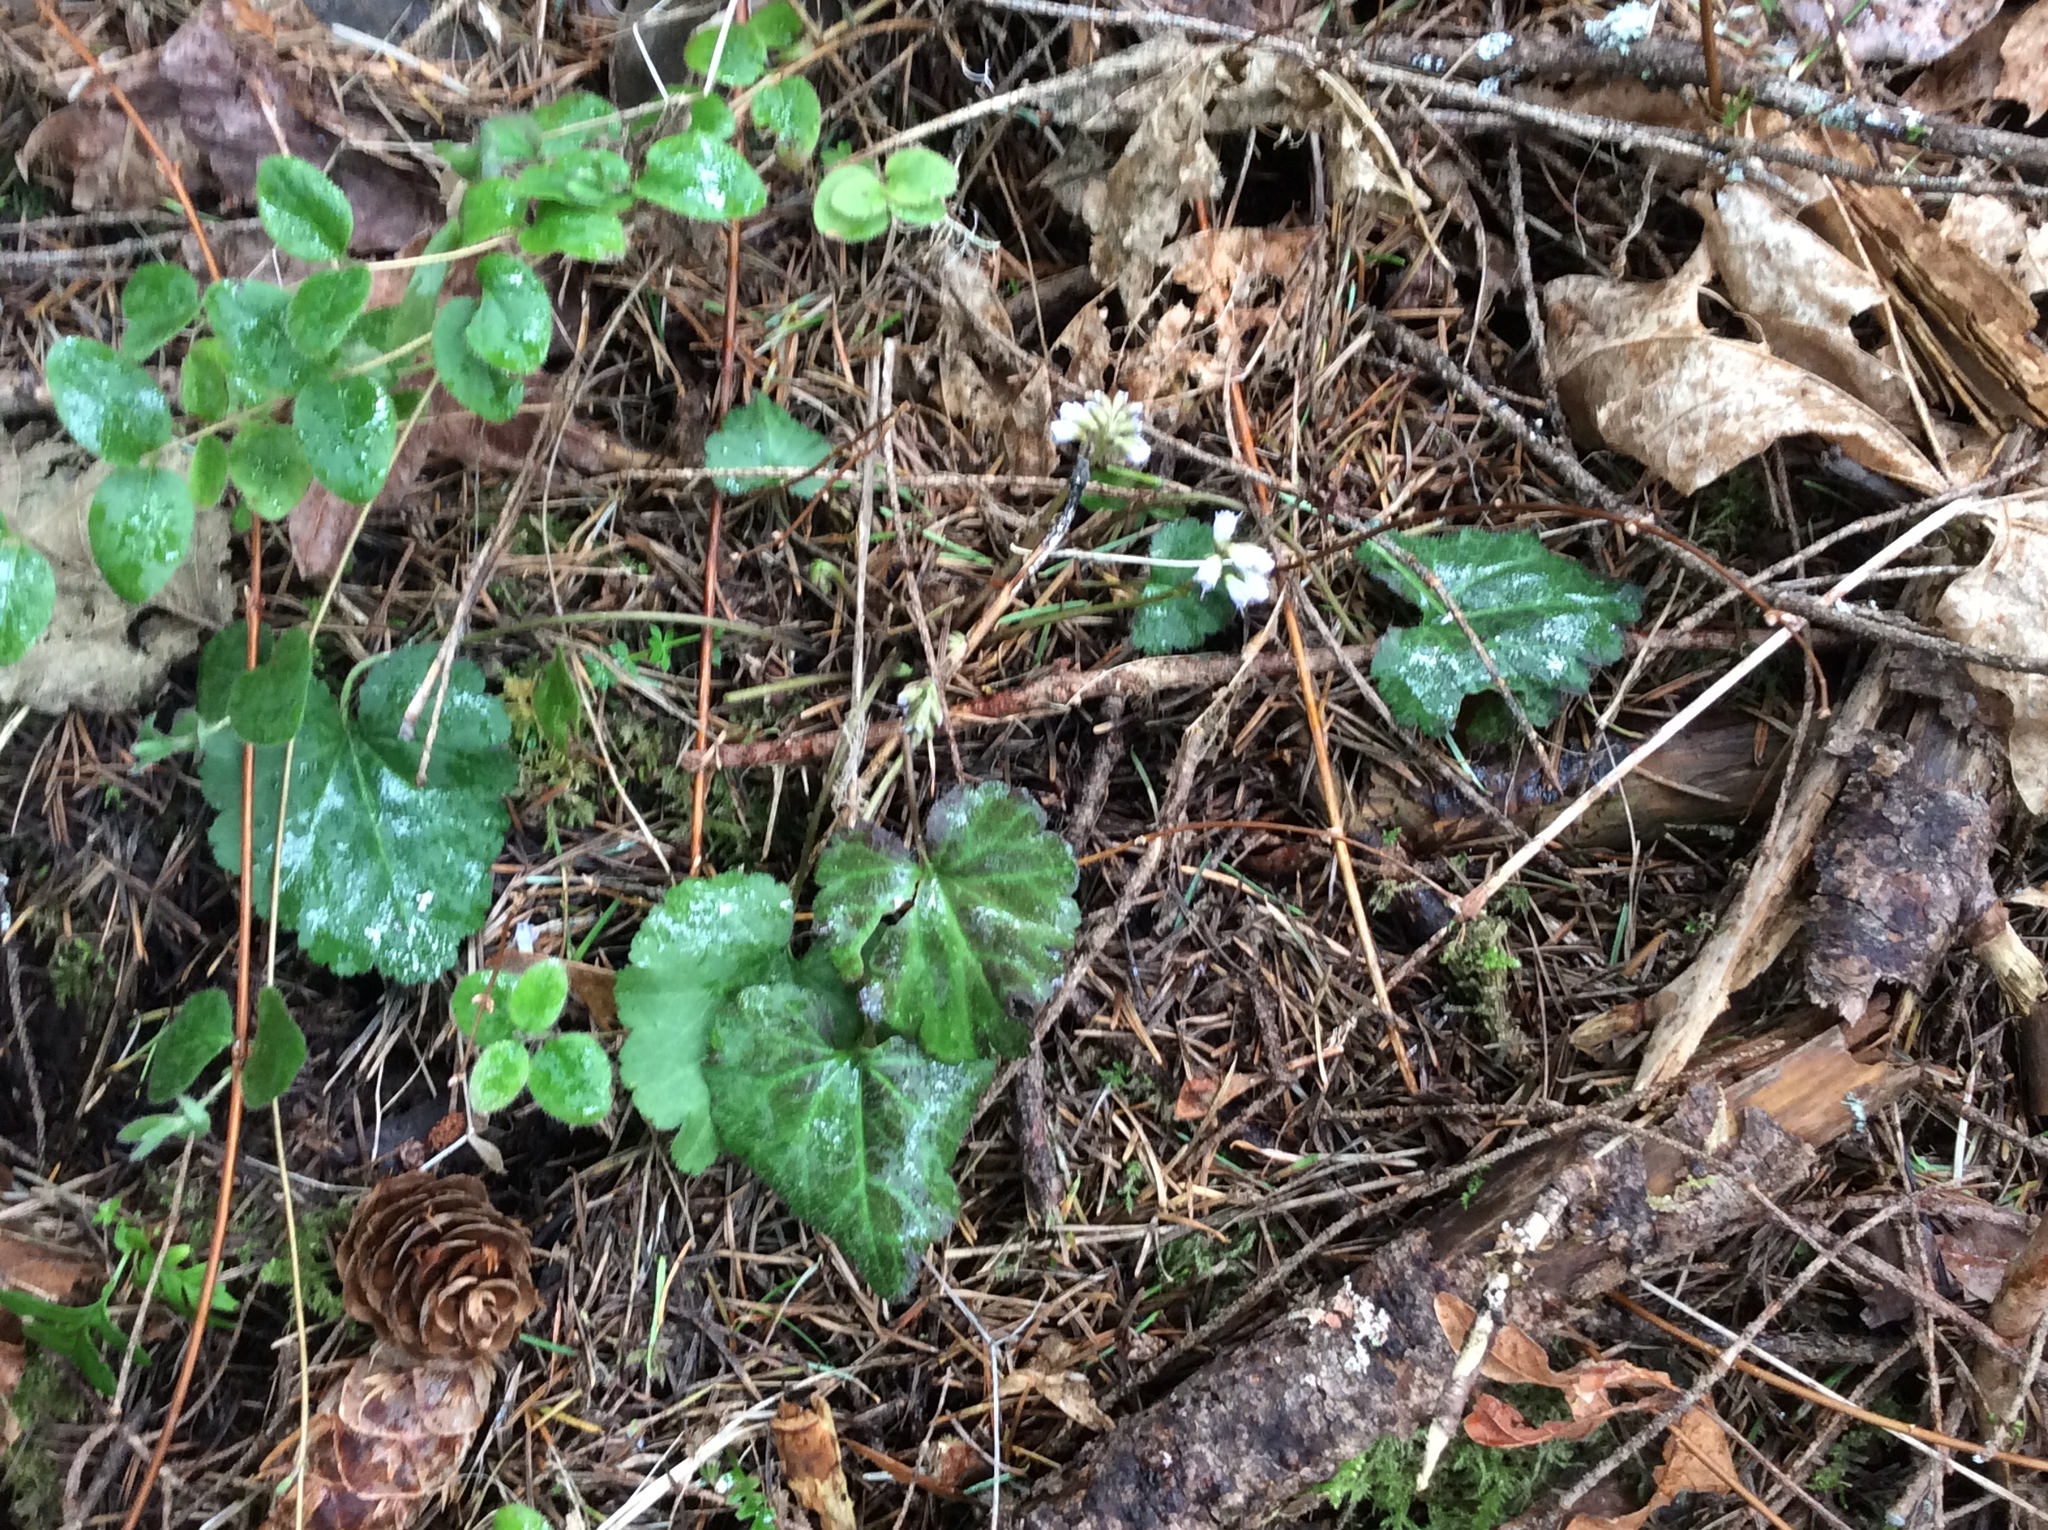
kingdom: Plantae
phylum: Tracheophyta
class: Magnoliopsida
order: Lamiales
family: Plantaginaceae
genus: Synthyris
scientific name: Synthyris reniformis
